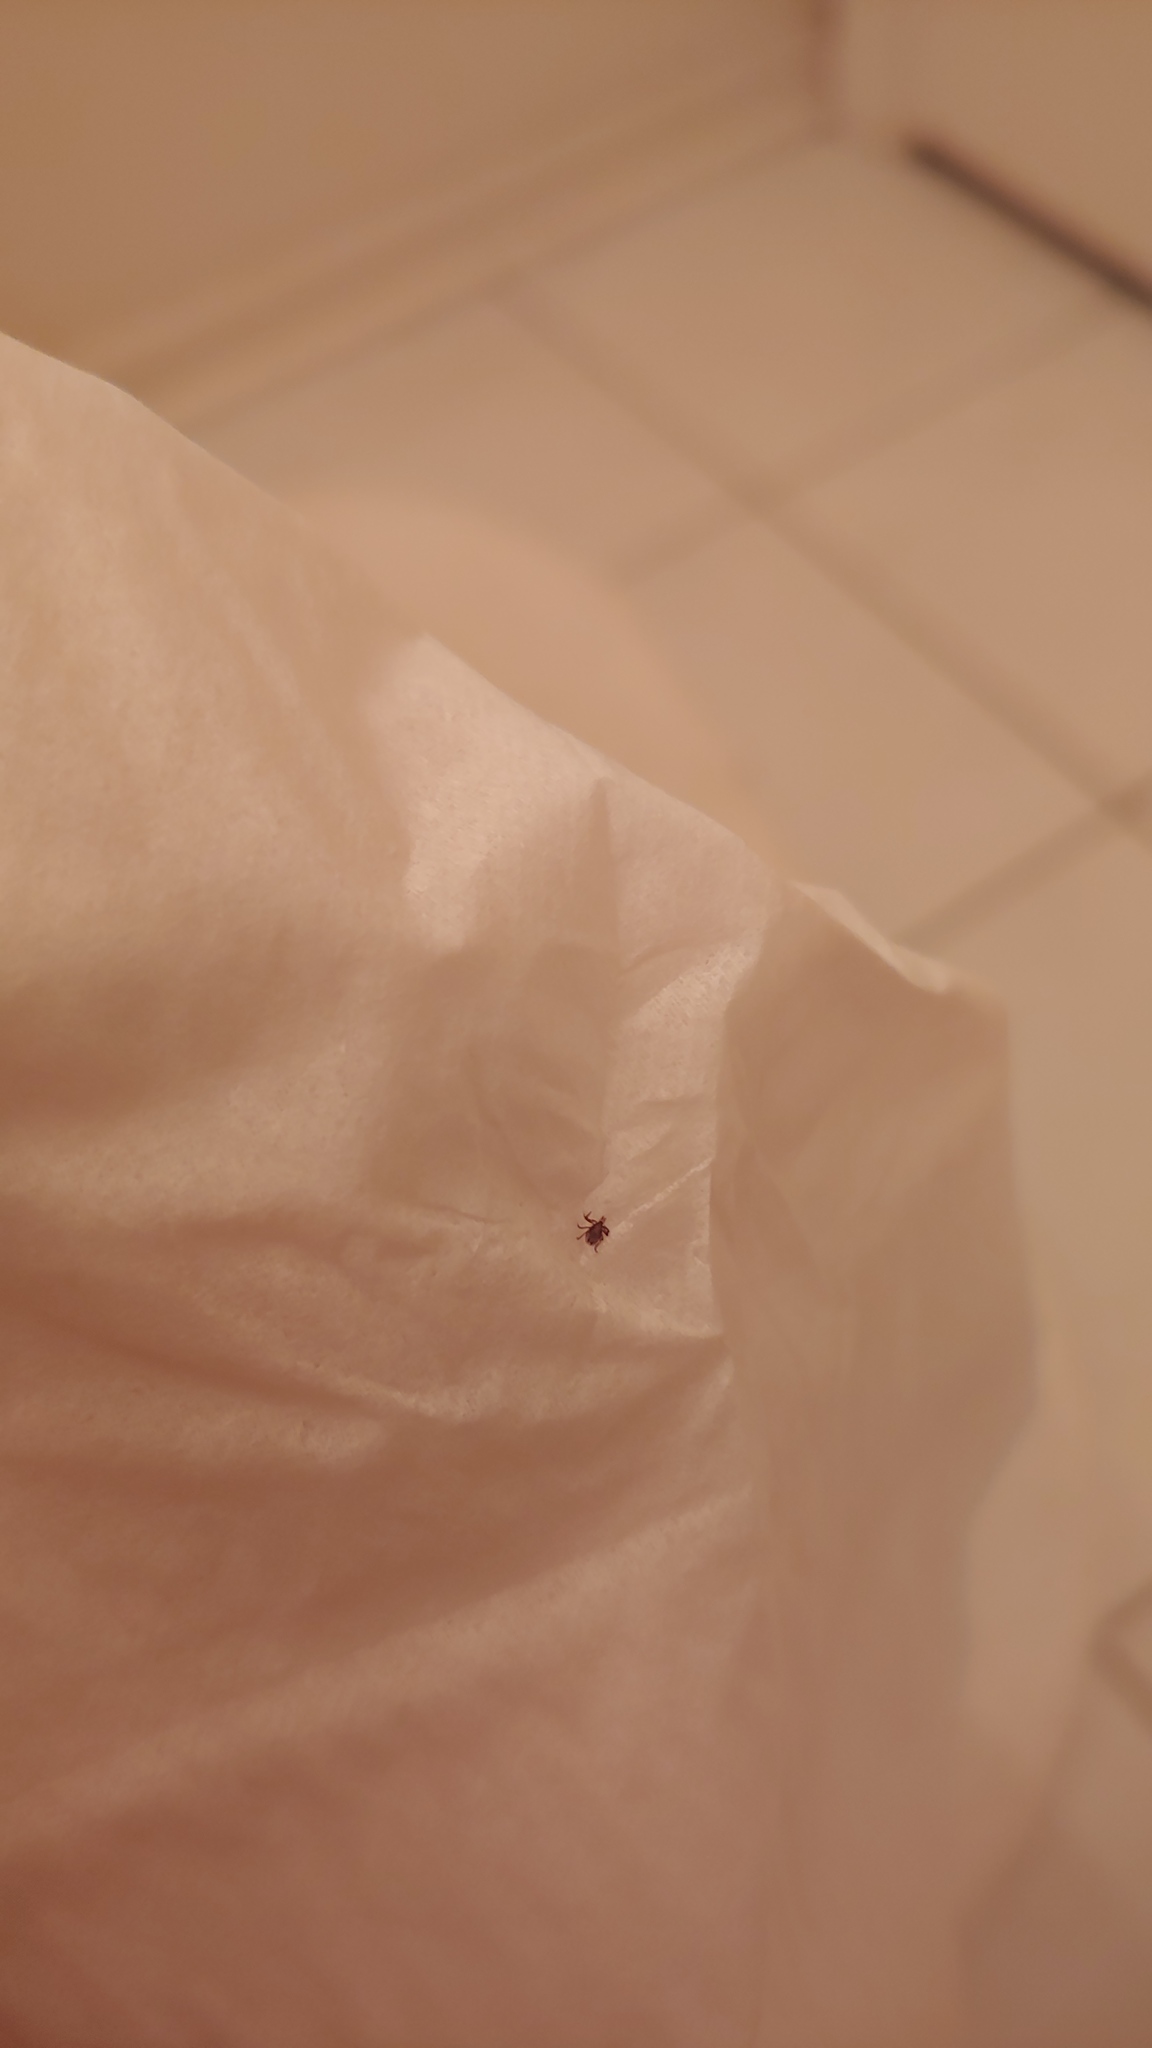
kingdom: Animalia
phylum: Arthropoda
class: Arachnida
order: Ixodida
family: Ixodidae
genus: Ixodes
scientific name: Ixodes scapularis
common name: Black legged tick
